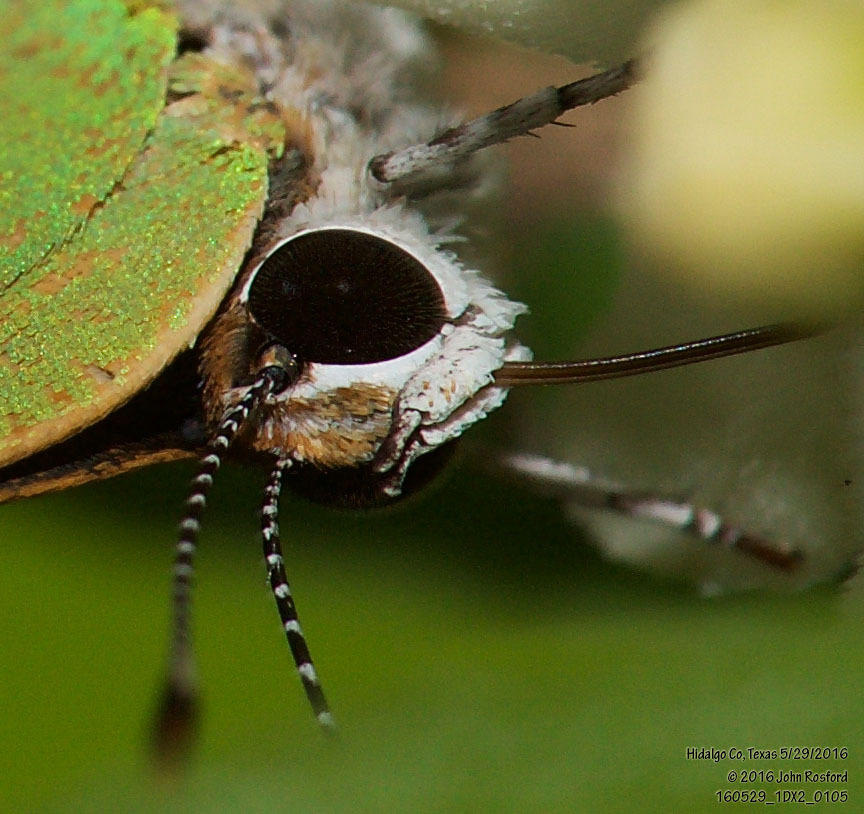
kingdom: Animalia
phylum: Arthropoda
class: Insecta
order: Lepidoptera
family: Lycaenidae
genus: Cyanophrys
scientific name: Cyanophrys miserabilis
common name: Clench's greenstreak
